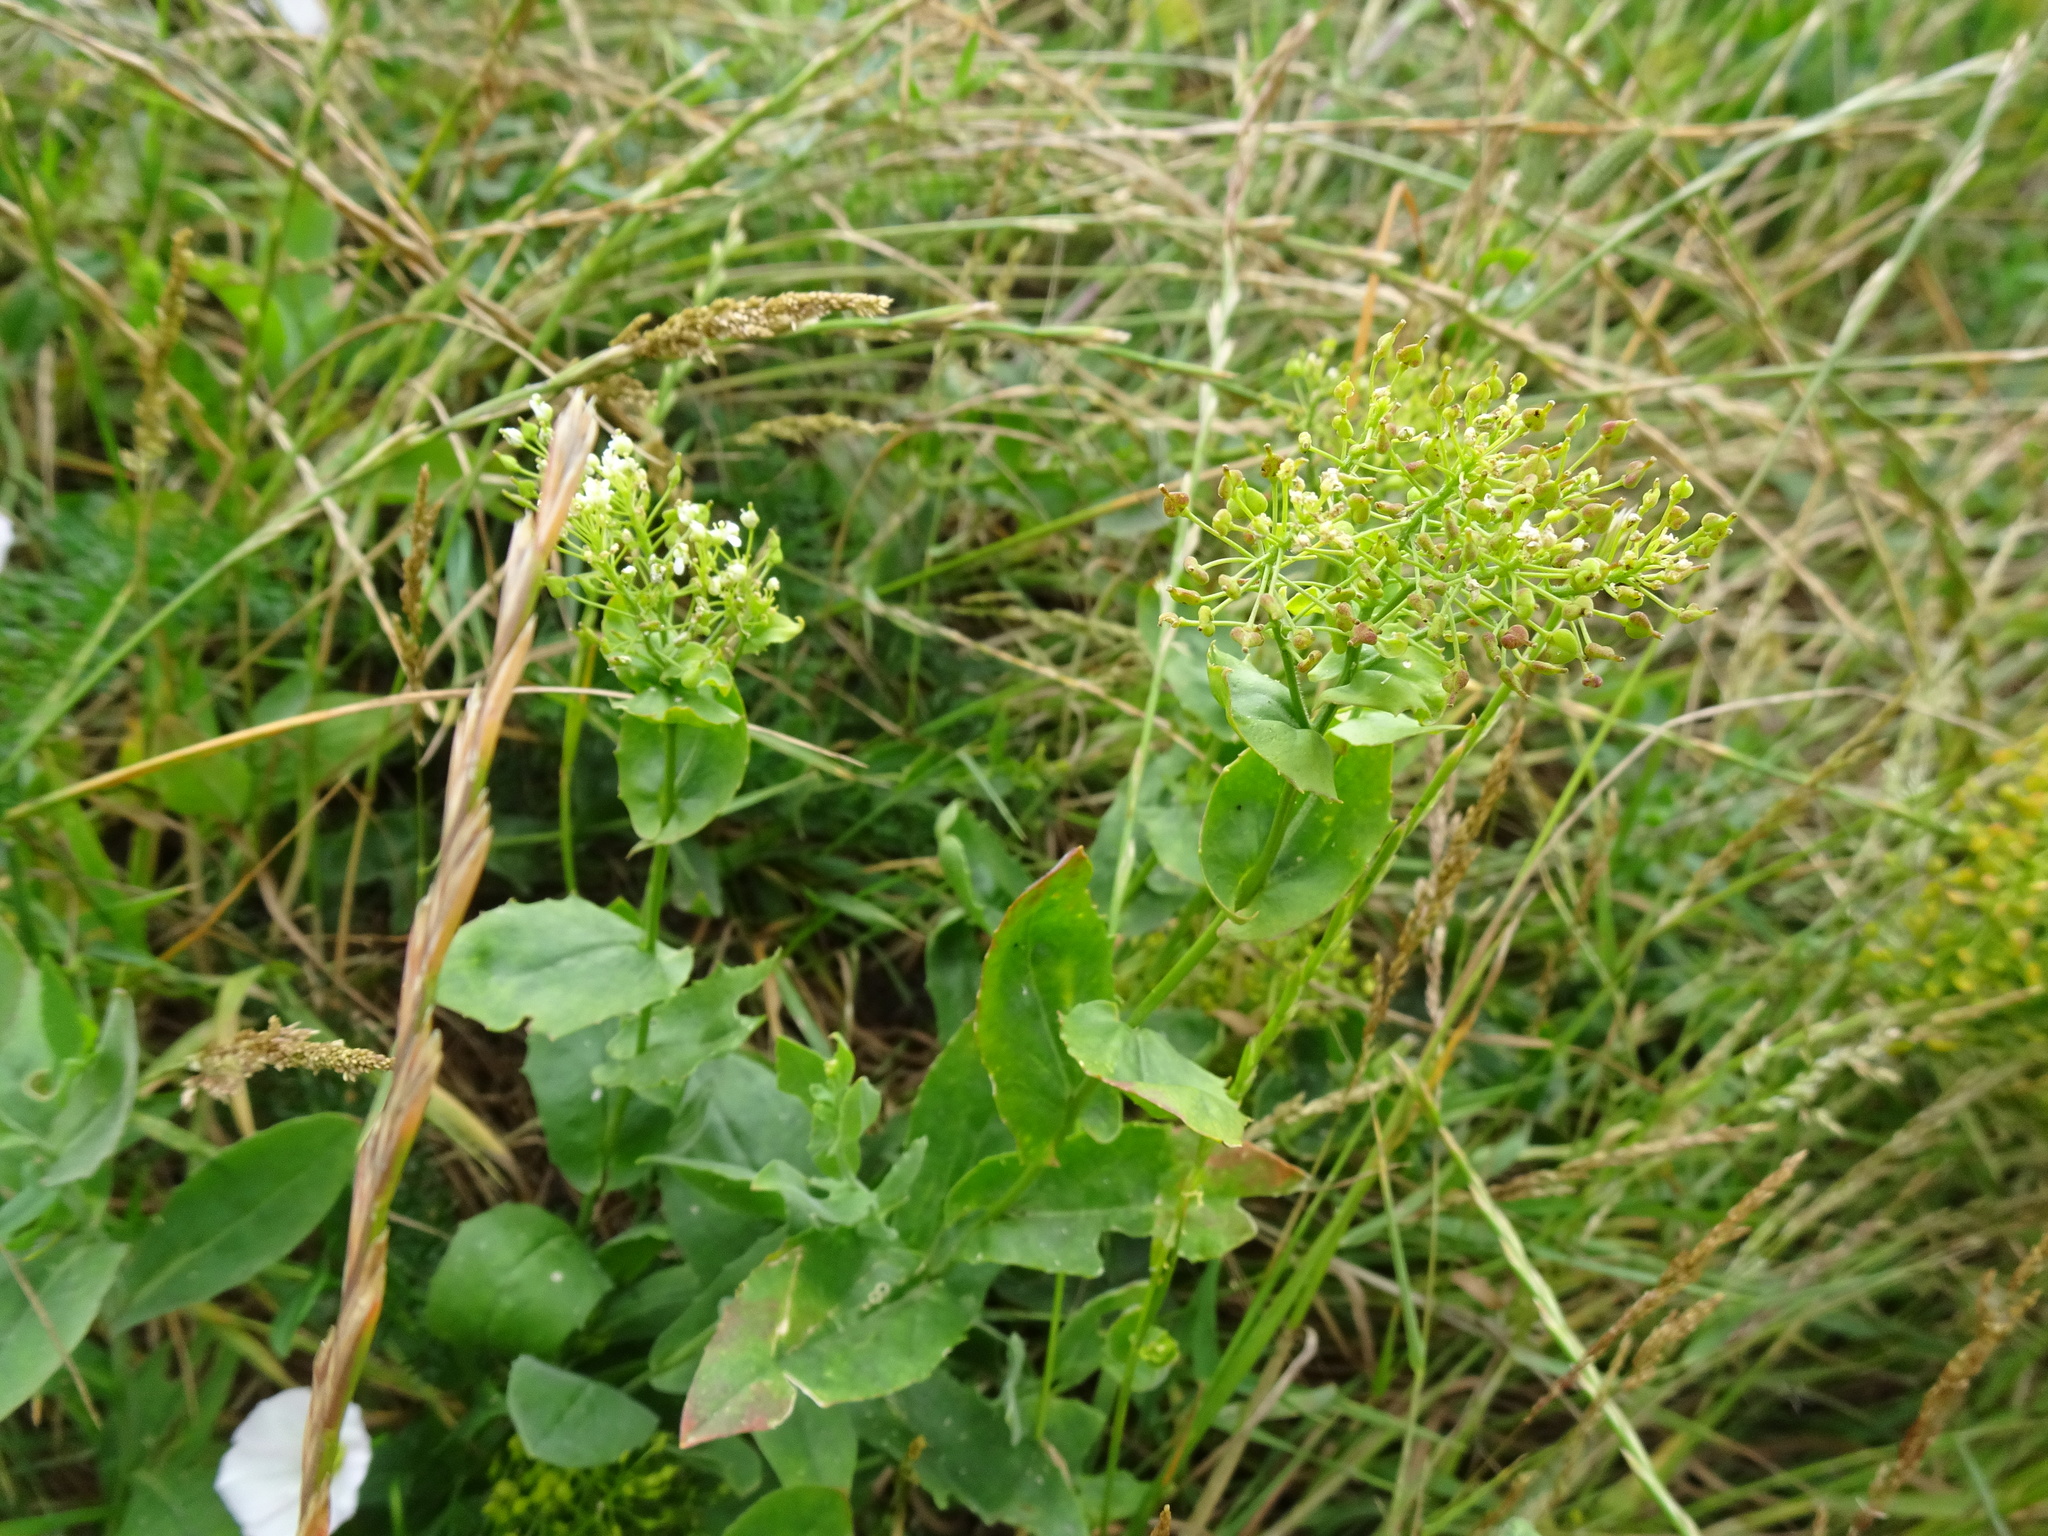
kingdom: Plantae
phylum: Tracheophyta
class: Magnoliopsida
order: Brassicales
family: Brassicaceae
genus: Lepidium
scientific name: Lepidium draba
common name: Hoary cress
